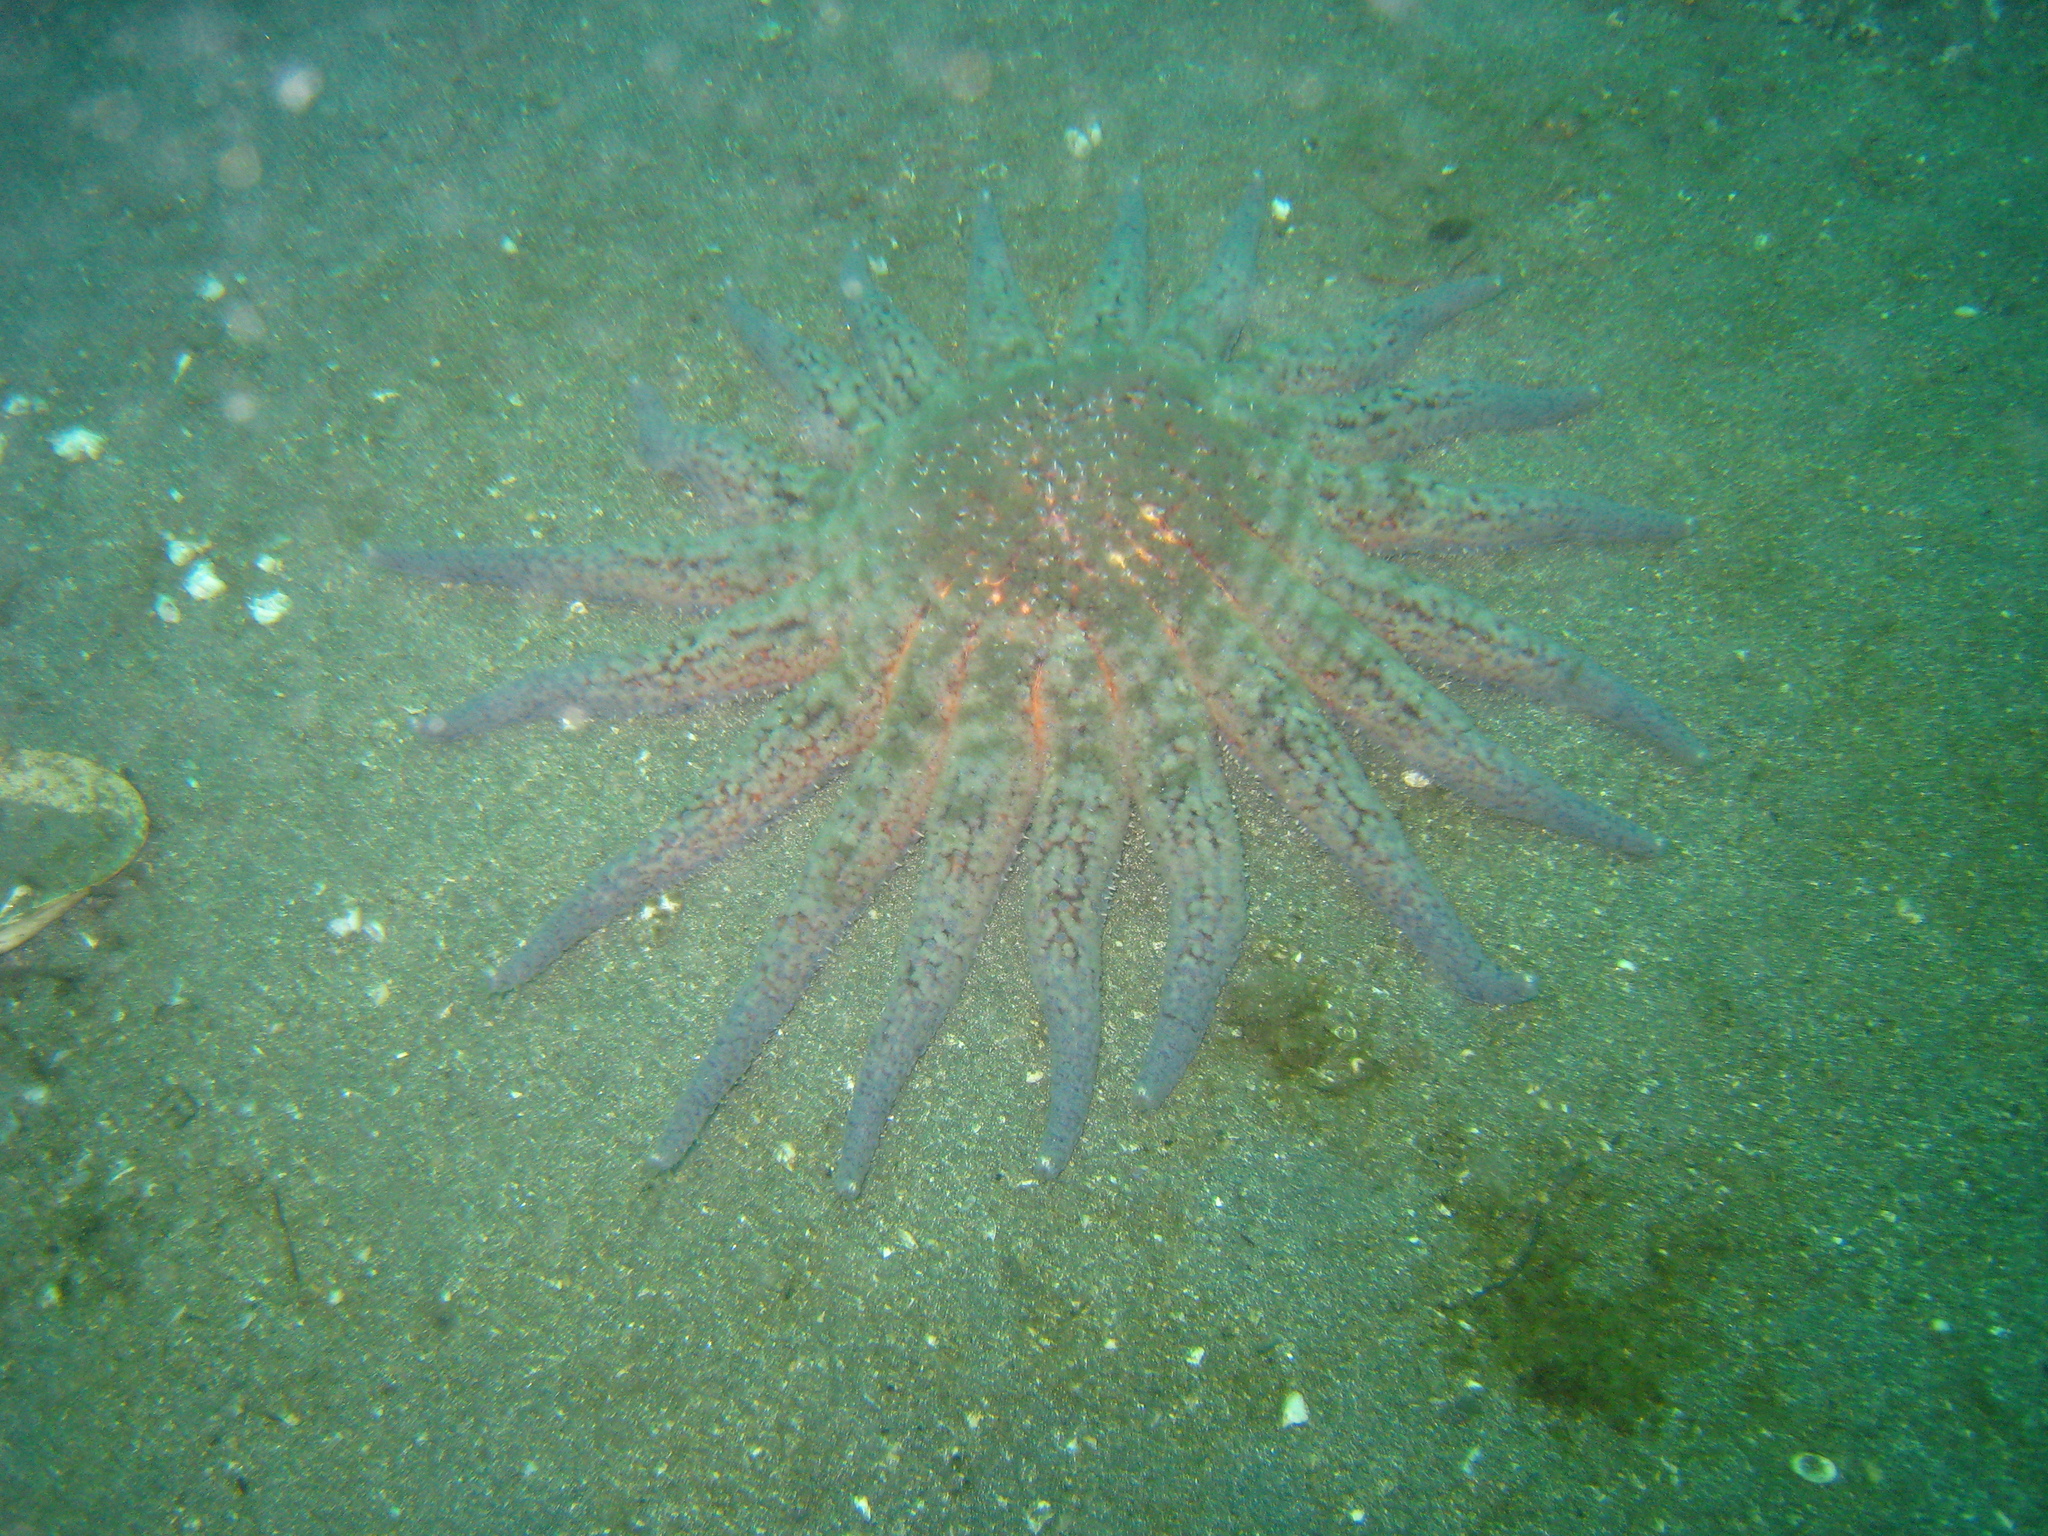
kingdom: Animalia
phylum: Echinodermata
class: Asteroidea
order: Forcipulatida
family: Asteriidae
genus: Pycnopodia
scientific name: Pycnopodia helianthoides
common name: Rag mop
